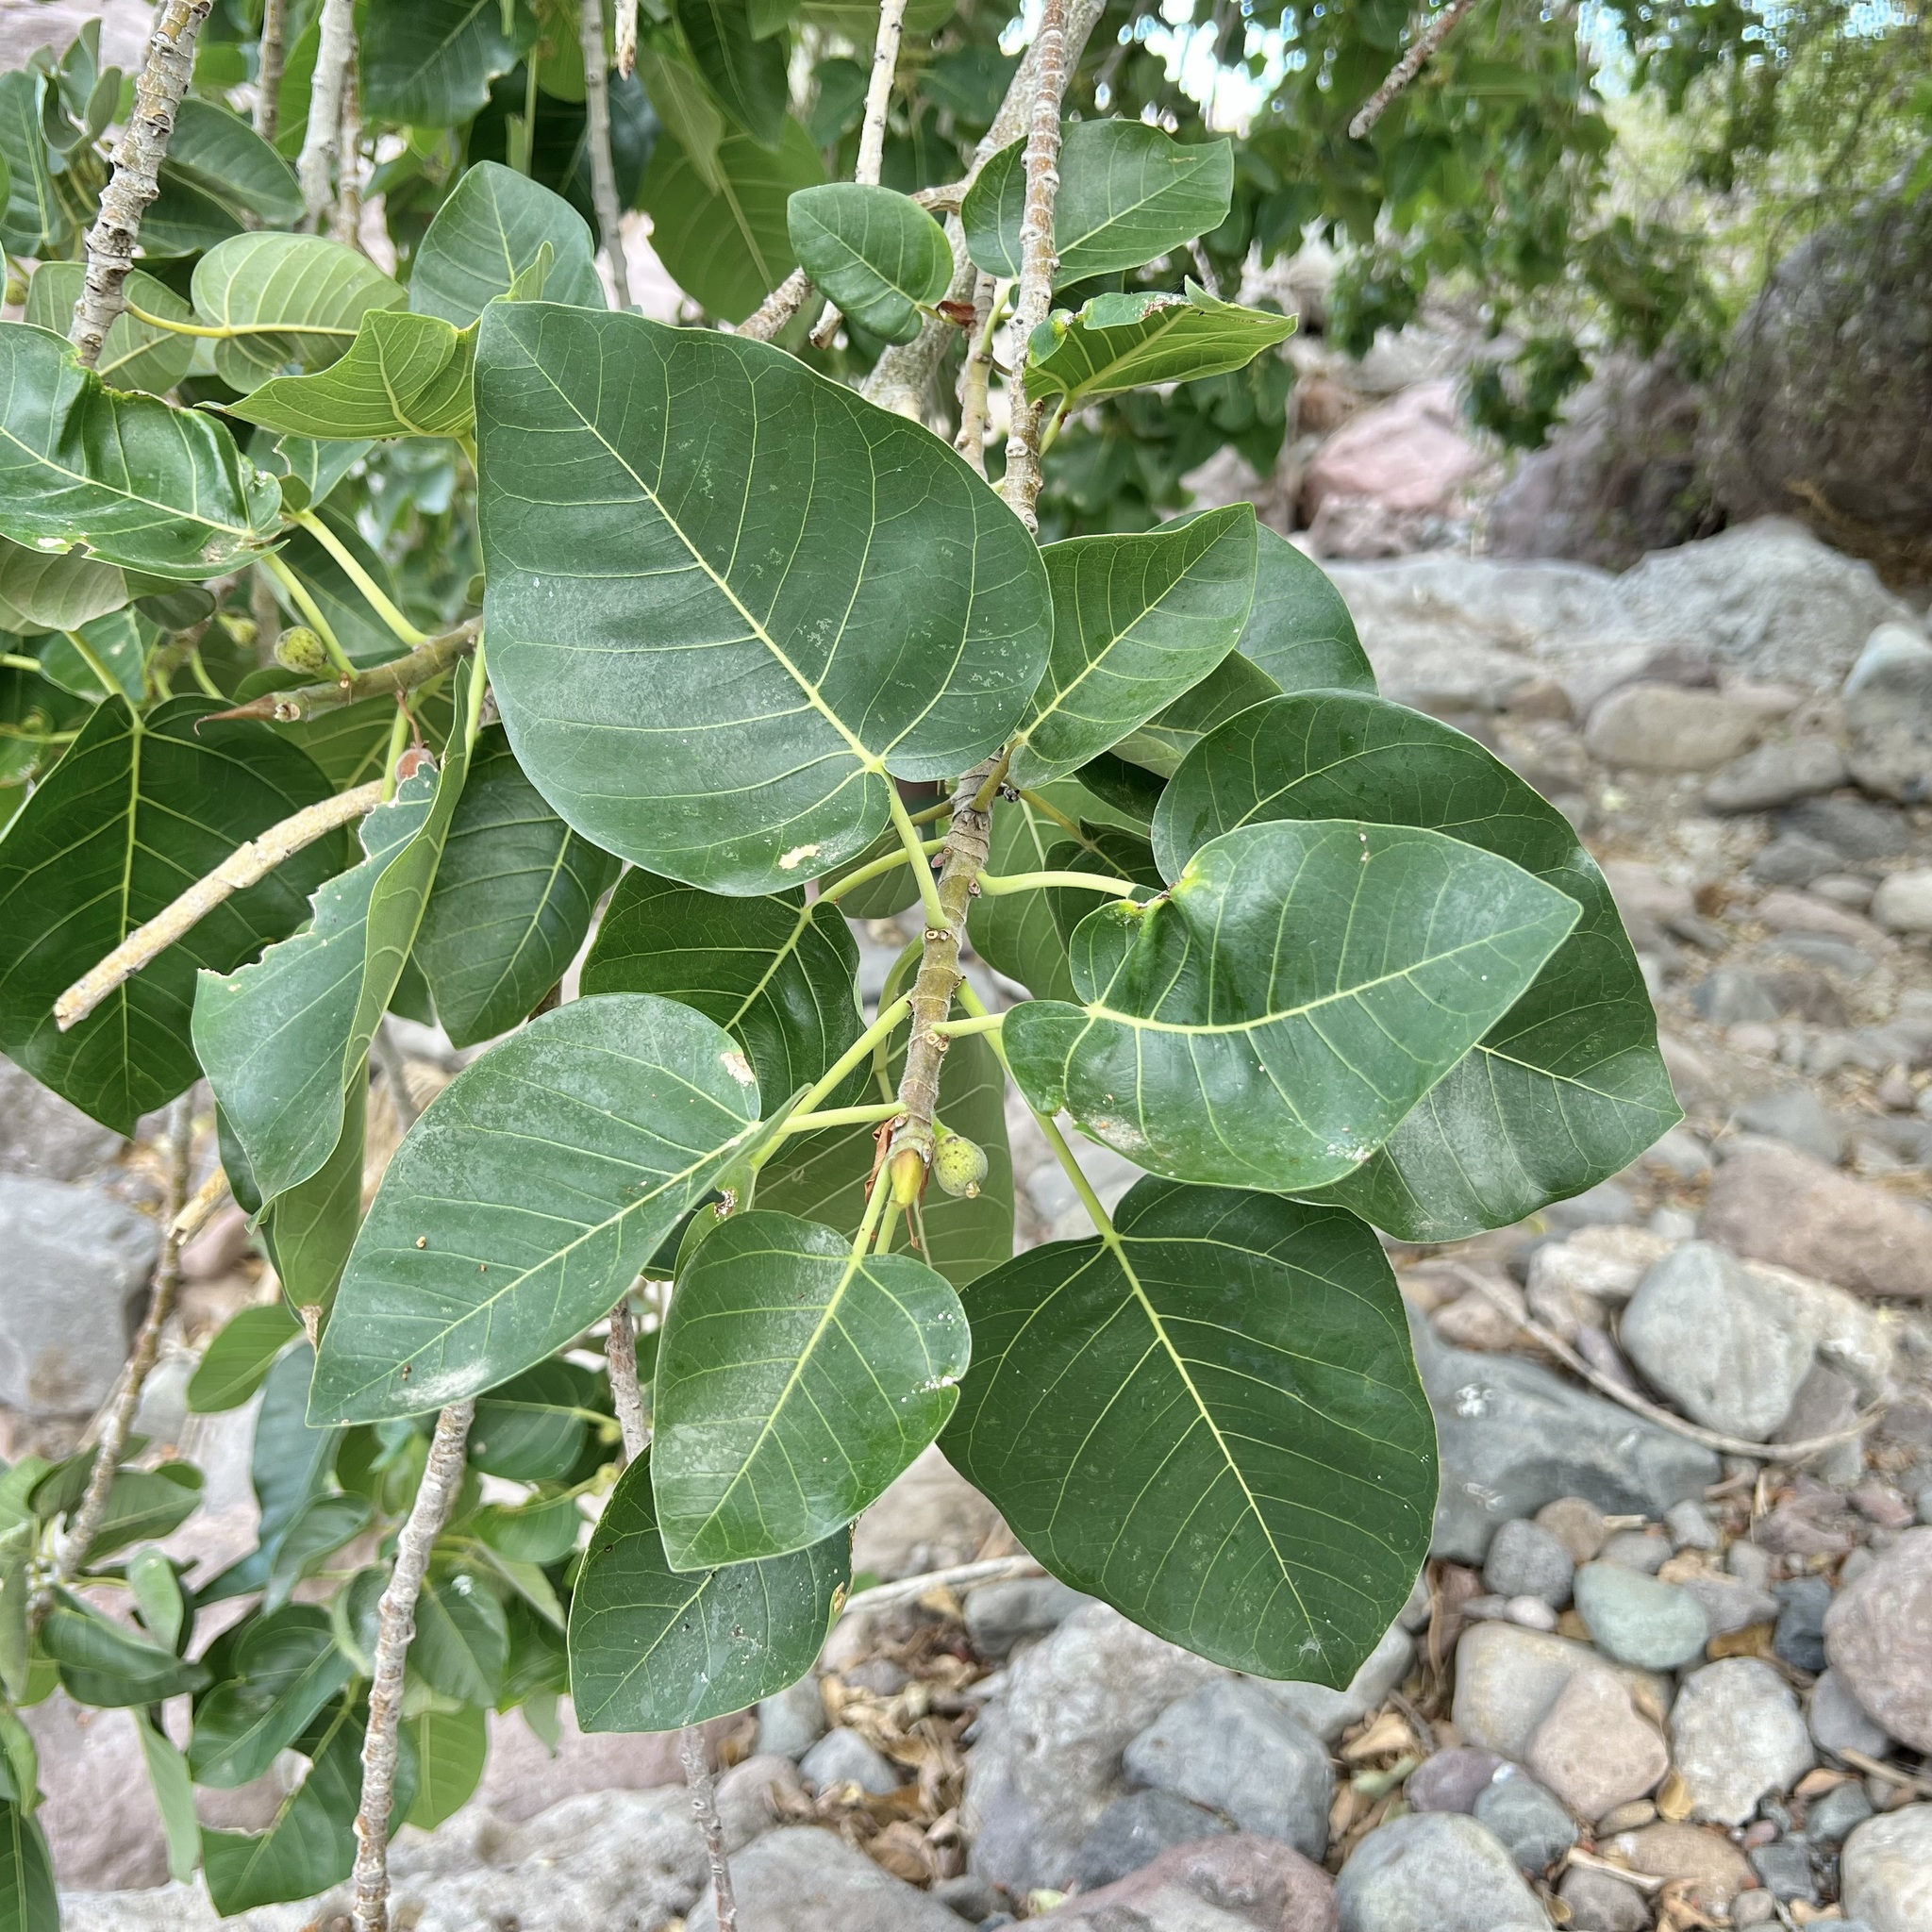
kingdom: Plantae
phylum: Tracheophyta
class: Magnoliopsida
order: Rosales
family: Moraceae
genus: Ficus
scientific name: Ficus petiolaris
